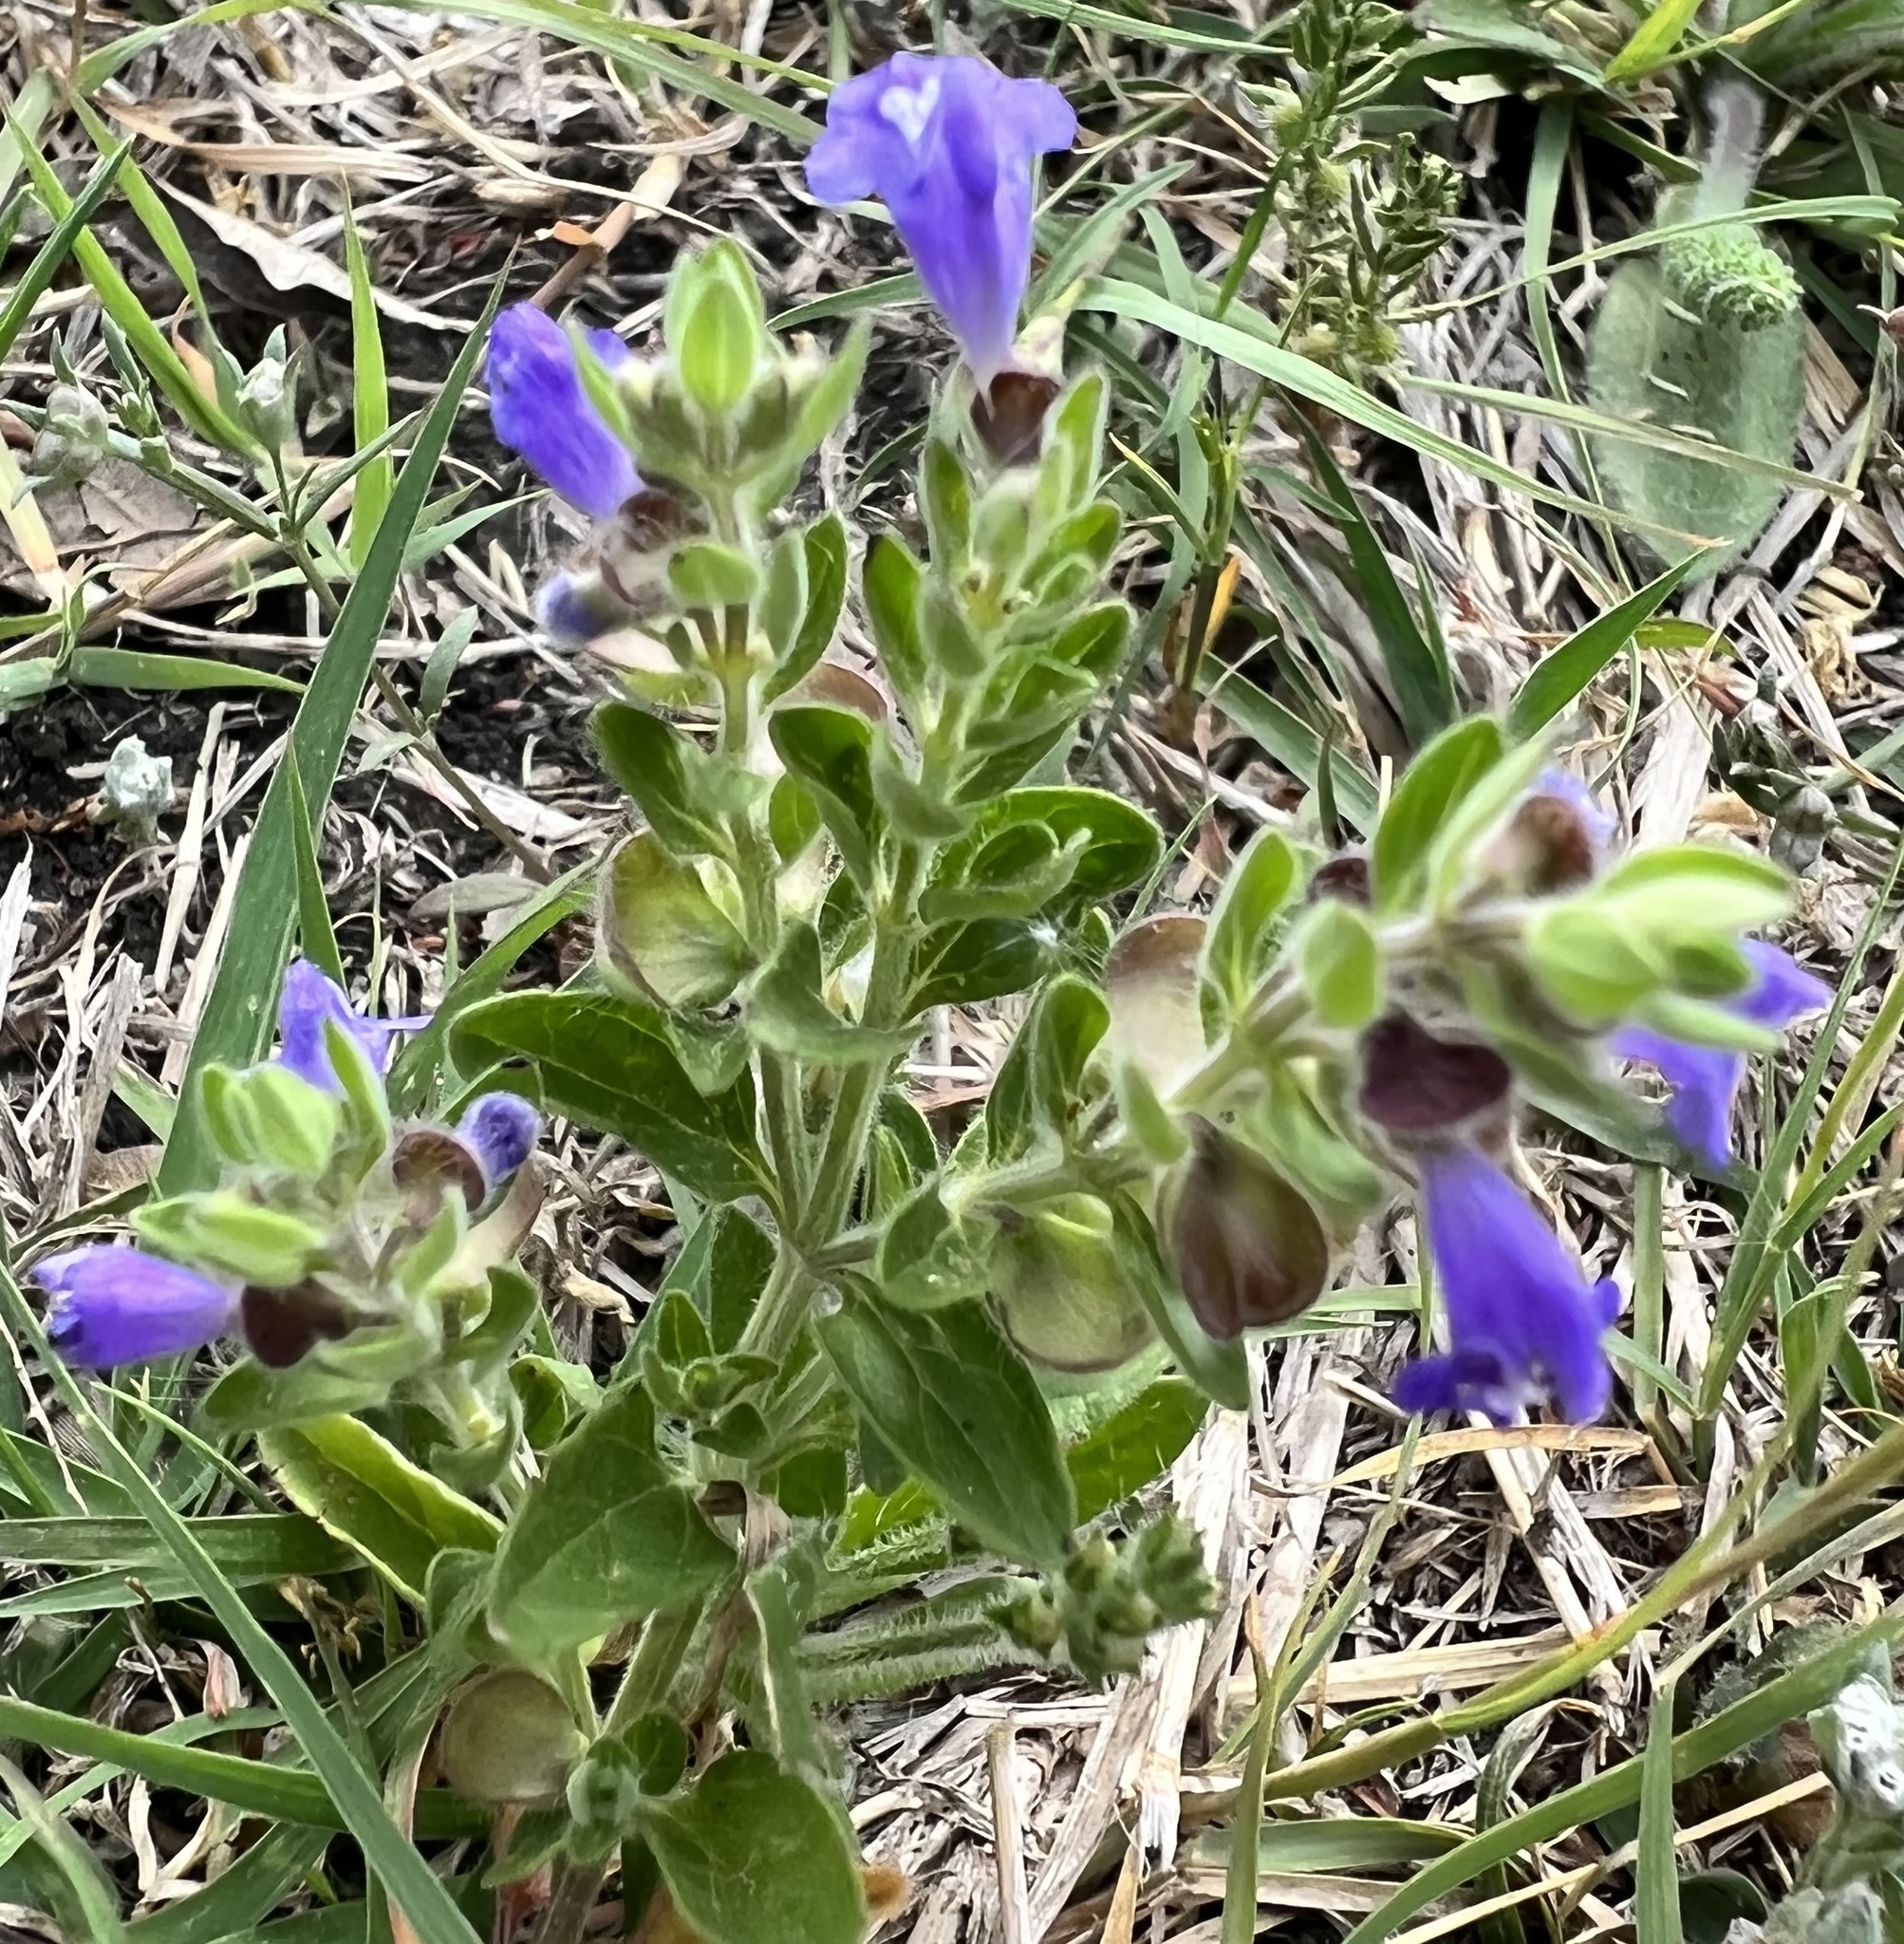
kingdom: Plantae
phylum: Tracheophyta
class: Magnoliopsida
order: Lamiales
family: Lamiaceae
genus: Scutellaria
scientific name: Scutellaria drummondii
